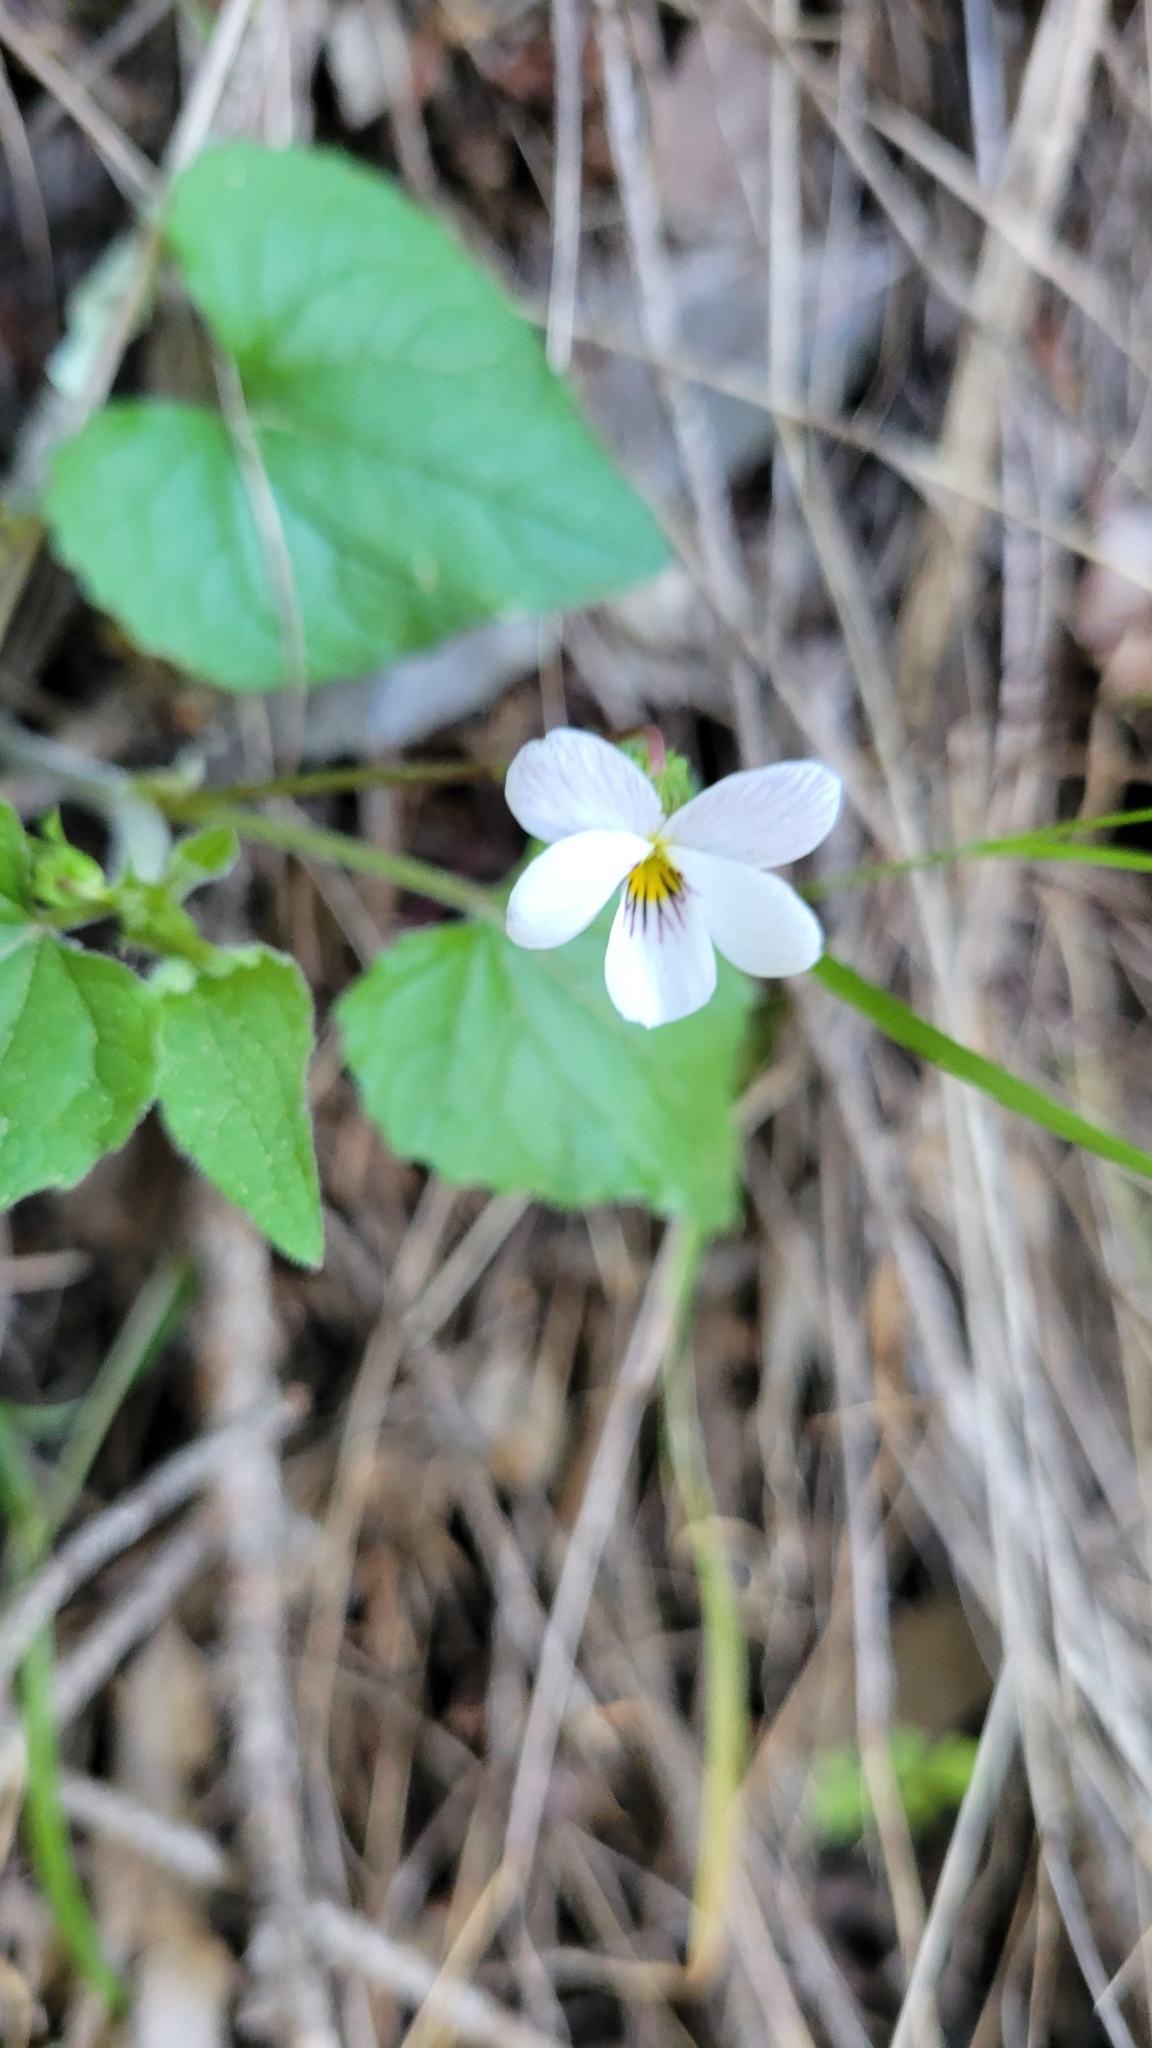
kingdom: Plantae
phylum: Tracheophyta
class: Magnoliopsida
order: Malpighiales
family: Violaceae
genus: Viola
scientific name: Viola ocellata
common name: Western heart's ease
